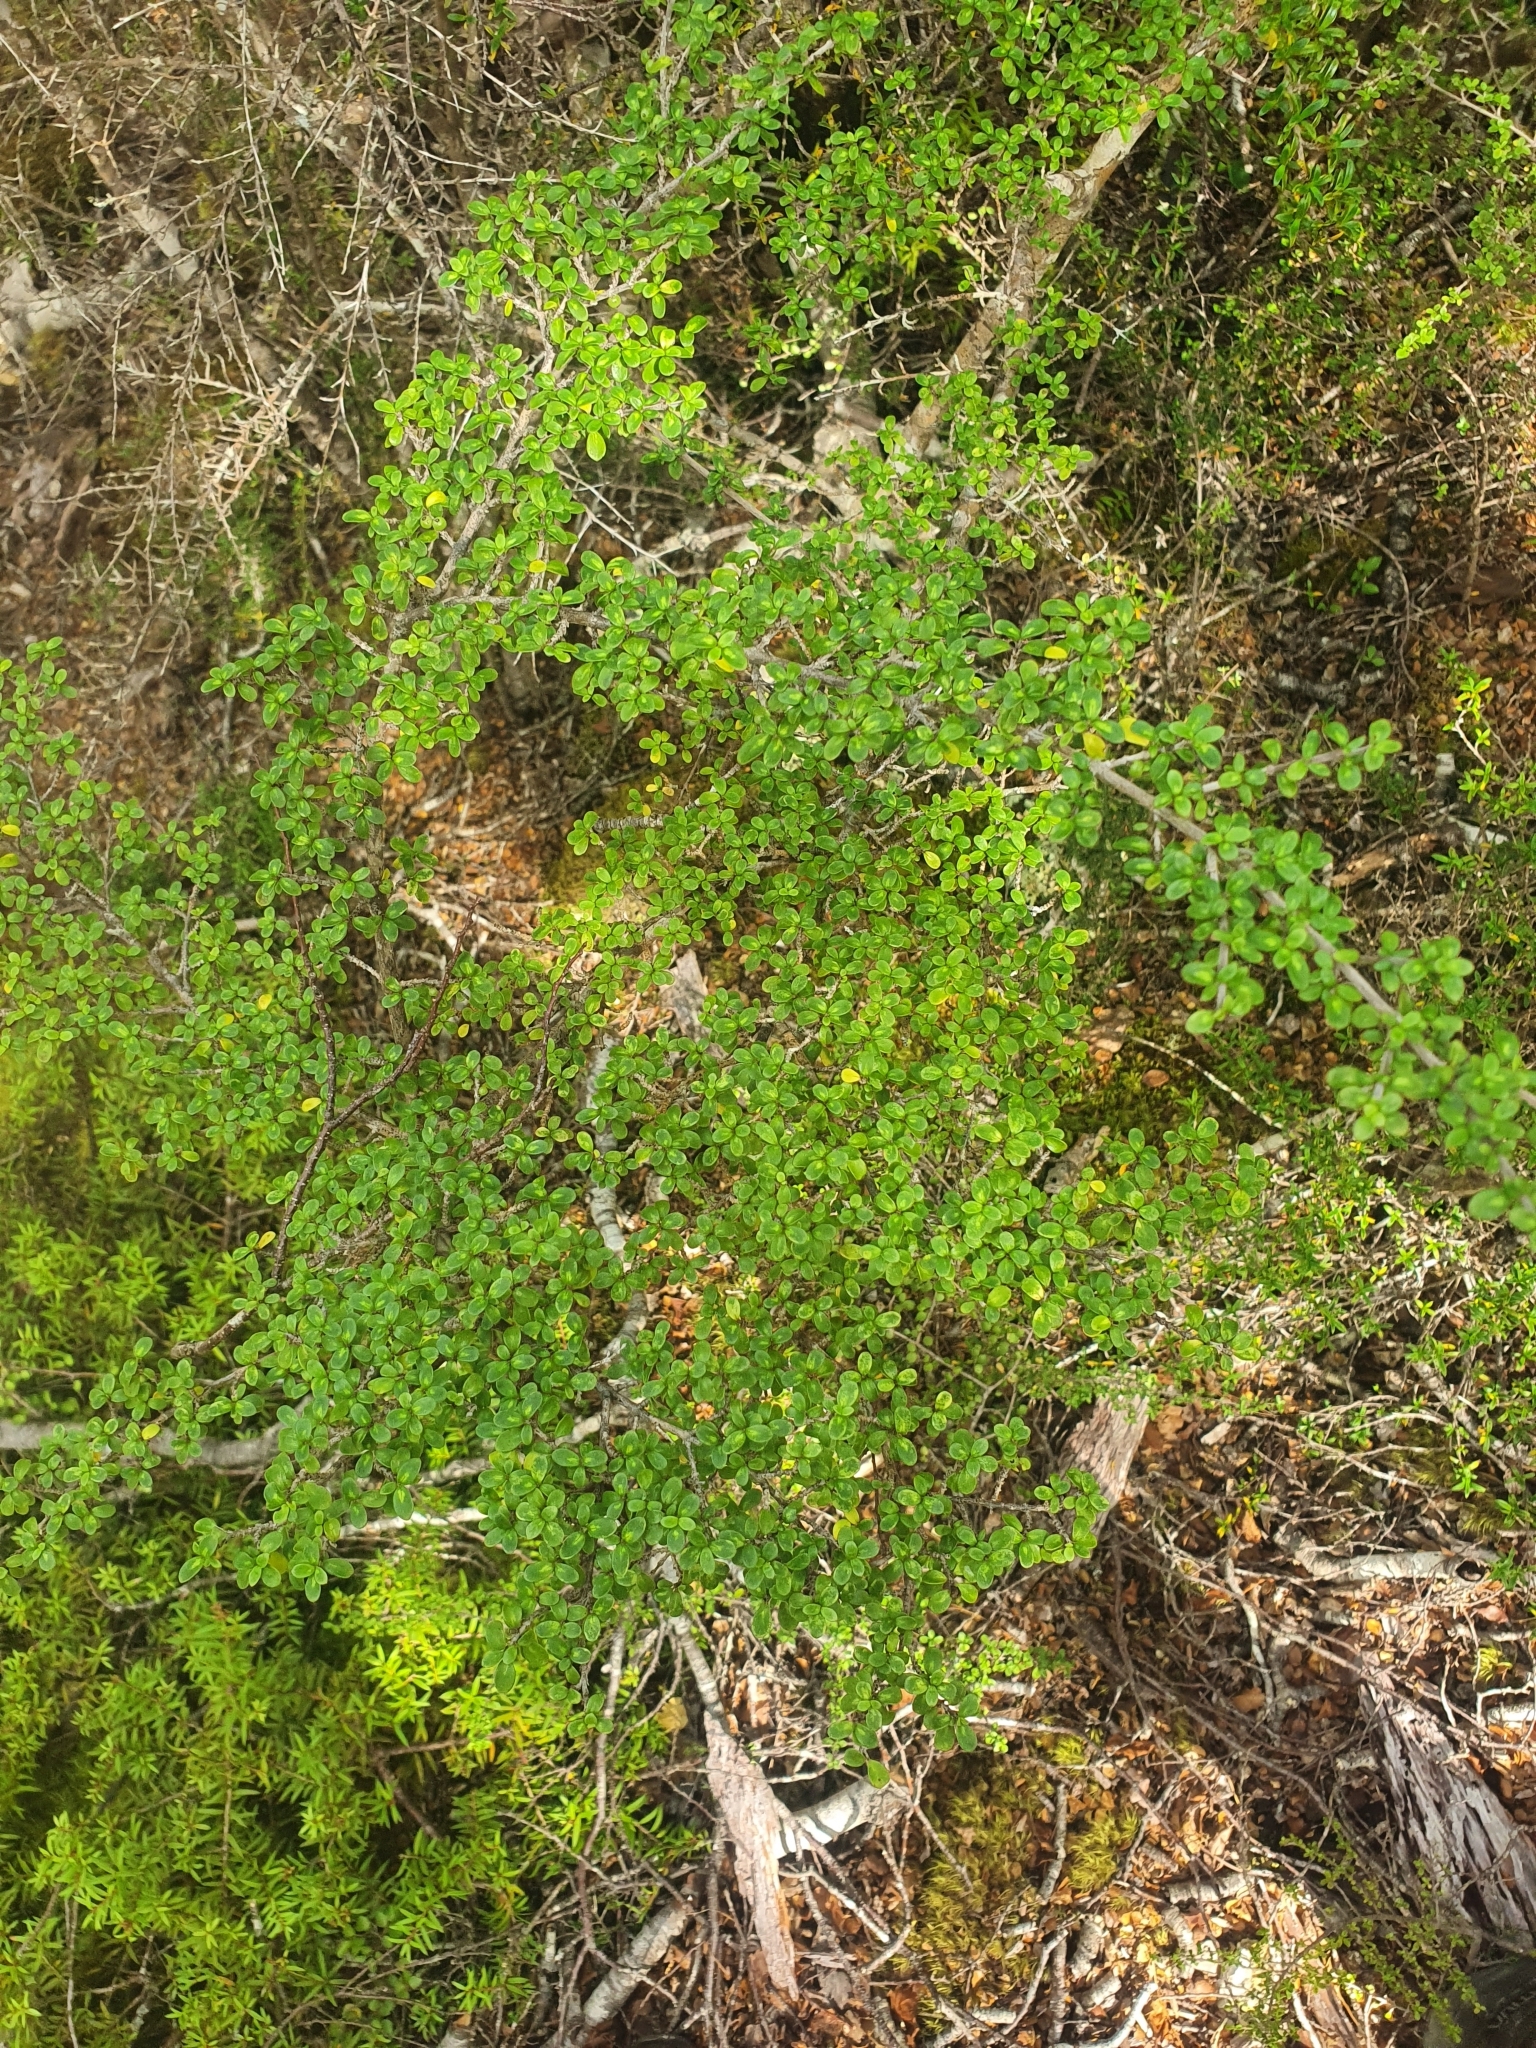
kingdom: Plantae
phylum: Tracheophyta
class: Magnoliopsida
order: Gentianales
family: Rubiaceae
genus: Coprosma
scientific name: Coprosma dumosa
